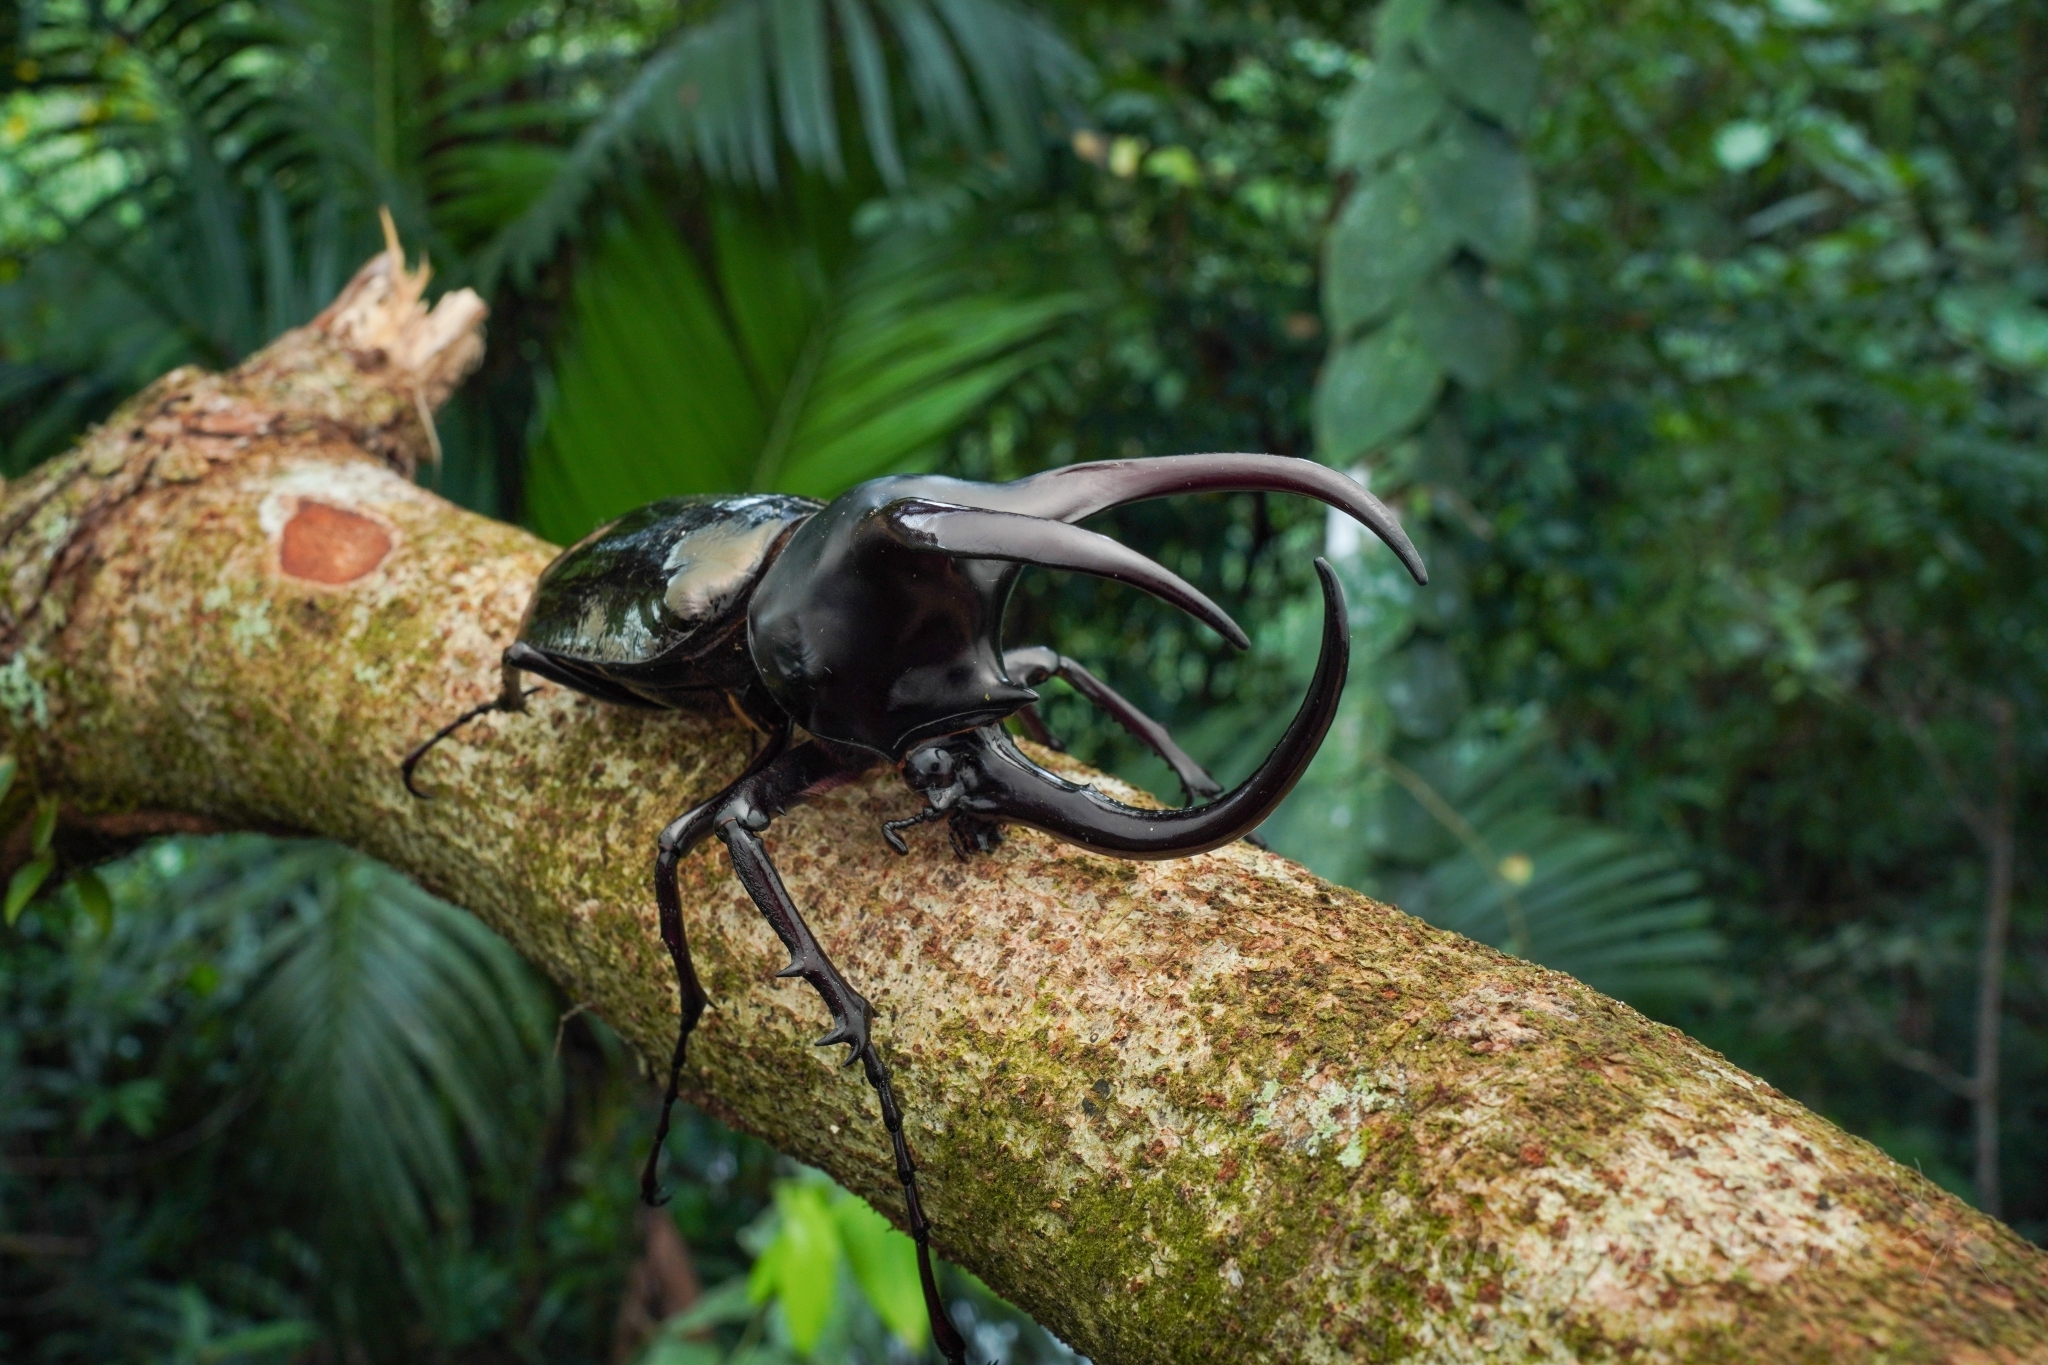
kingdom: Animalia
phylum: Arthropoda
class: Insecta
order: Coleoptera
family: Scarabaeidae
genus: Chalcosoma
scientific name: Chalcosoma moellenkampi
